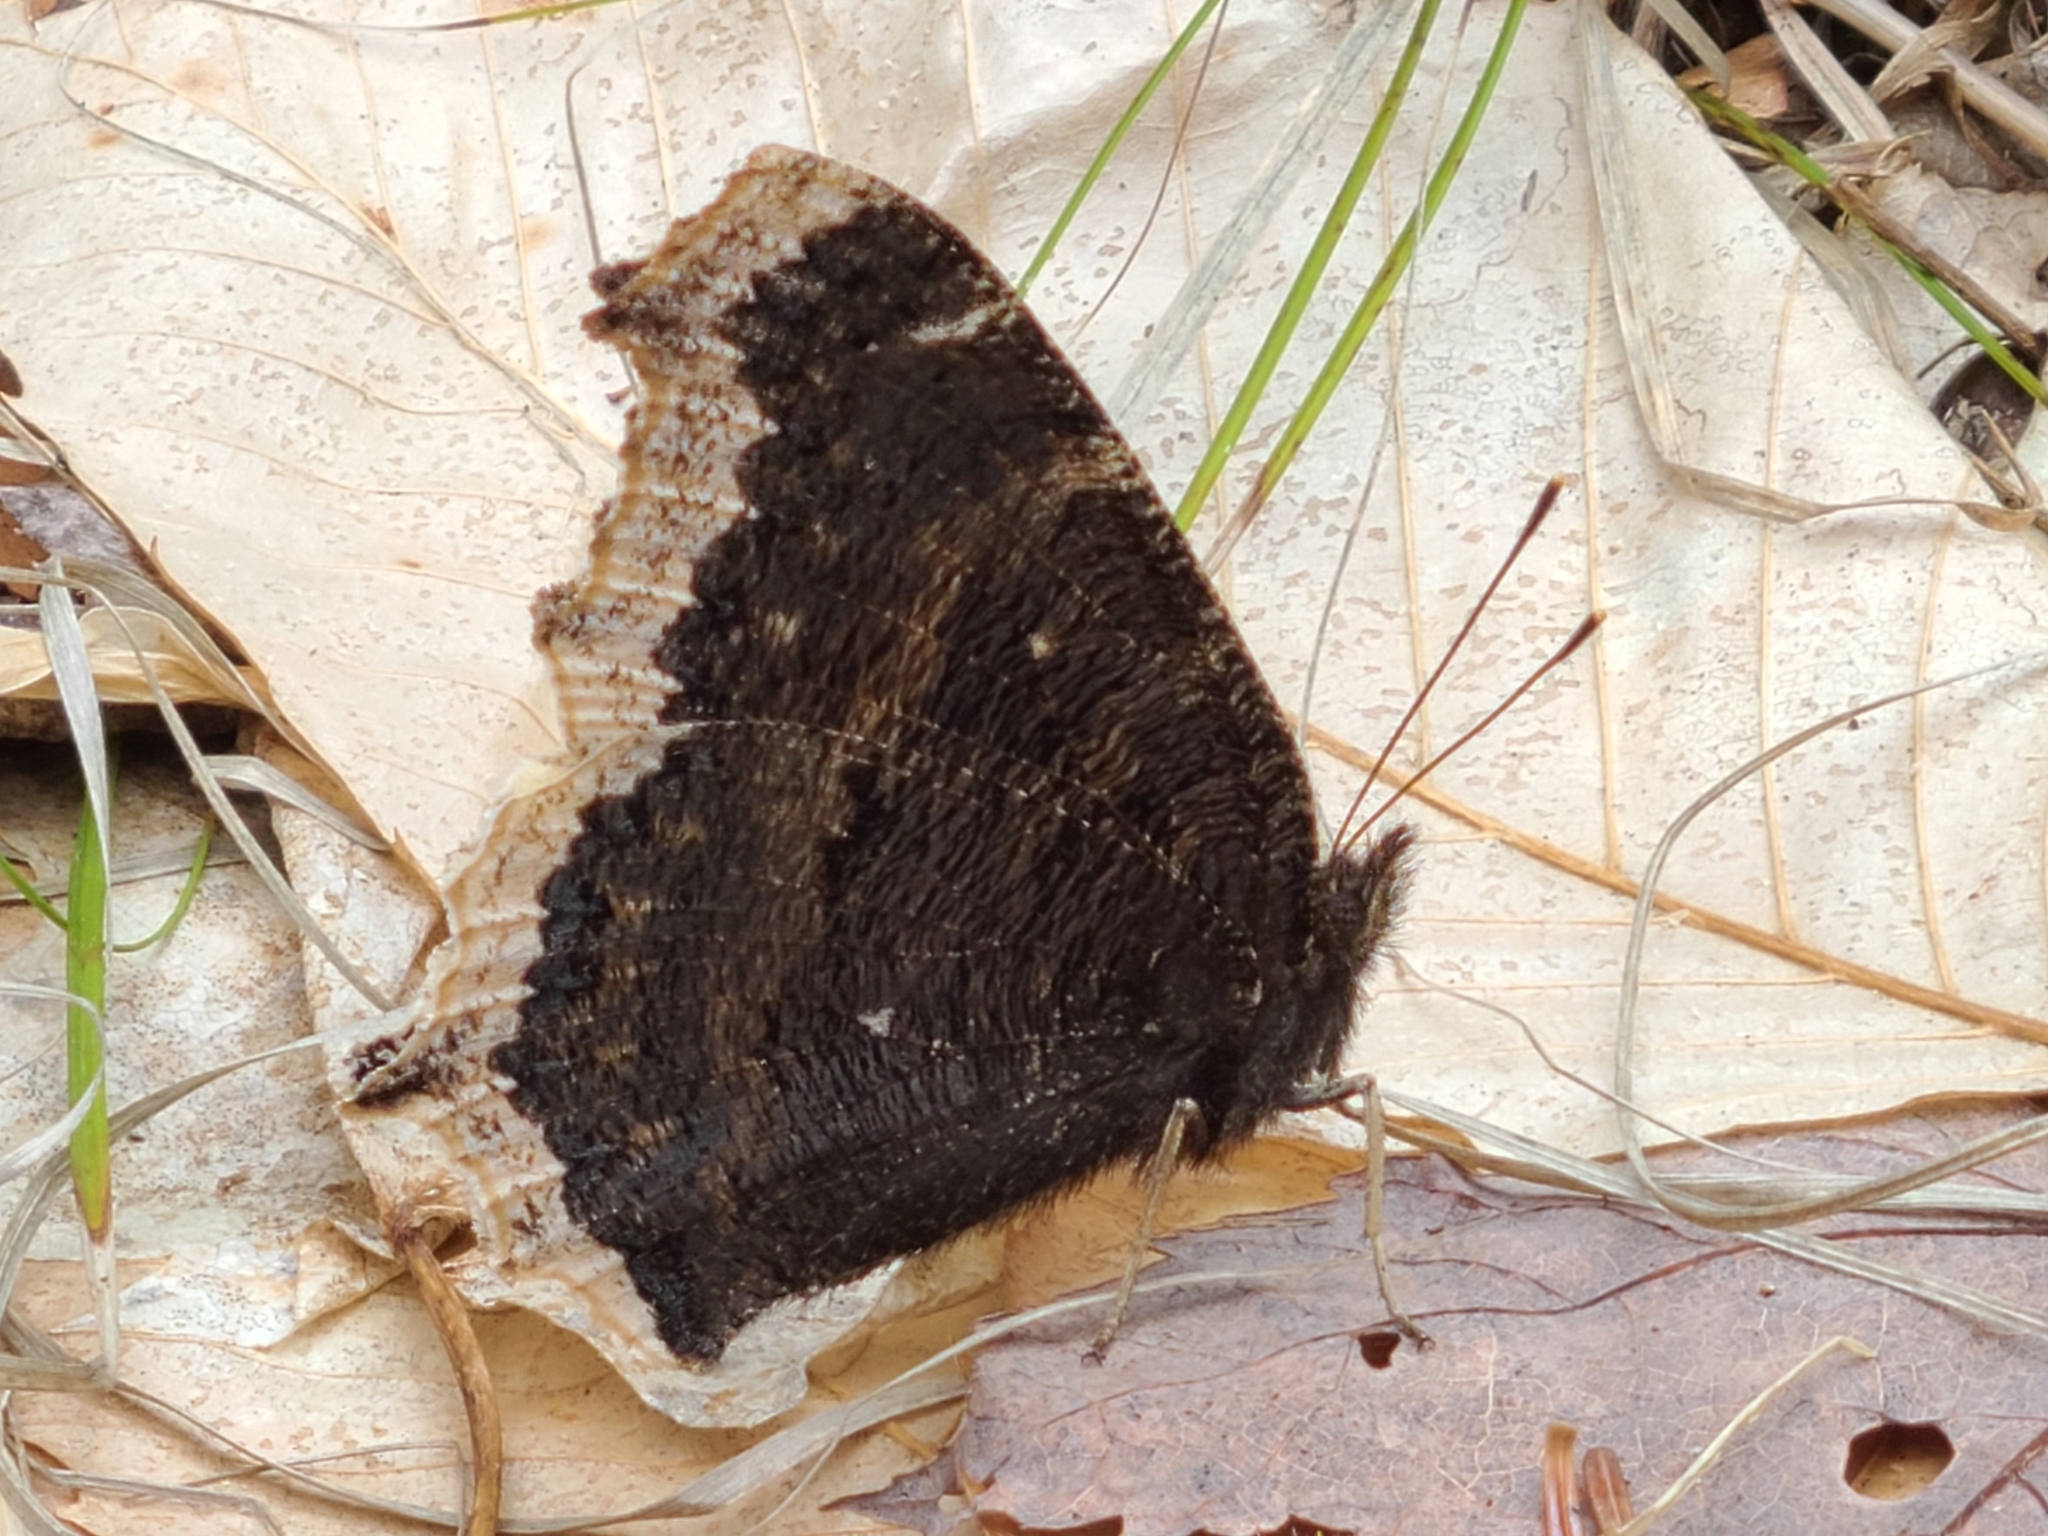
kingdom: Animalia
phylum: Arthropoda
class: Insecta
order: Lepidoptera
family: Nymphalidae
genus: Nymphalis
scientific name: Nymphalis antiopa
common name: Camberwell beauty
